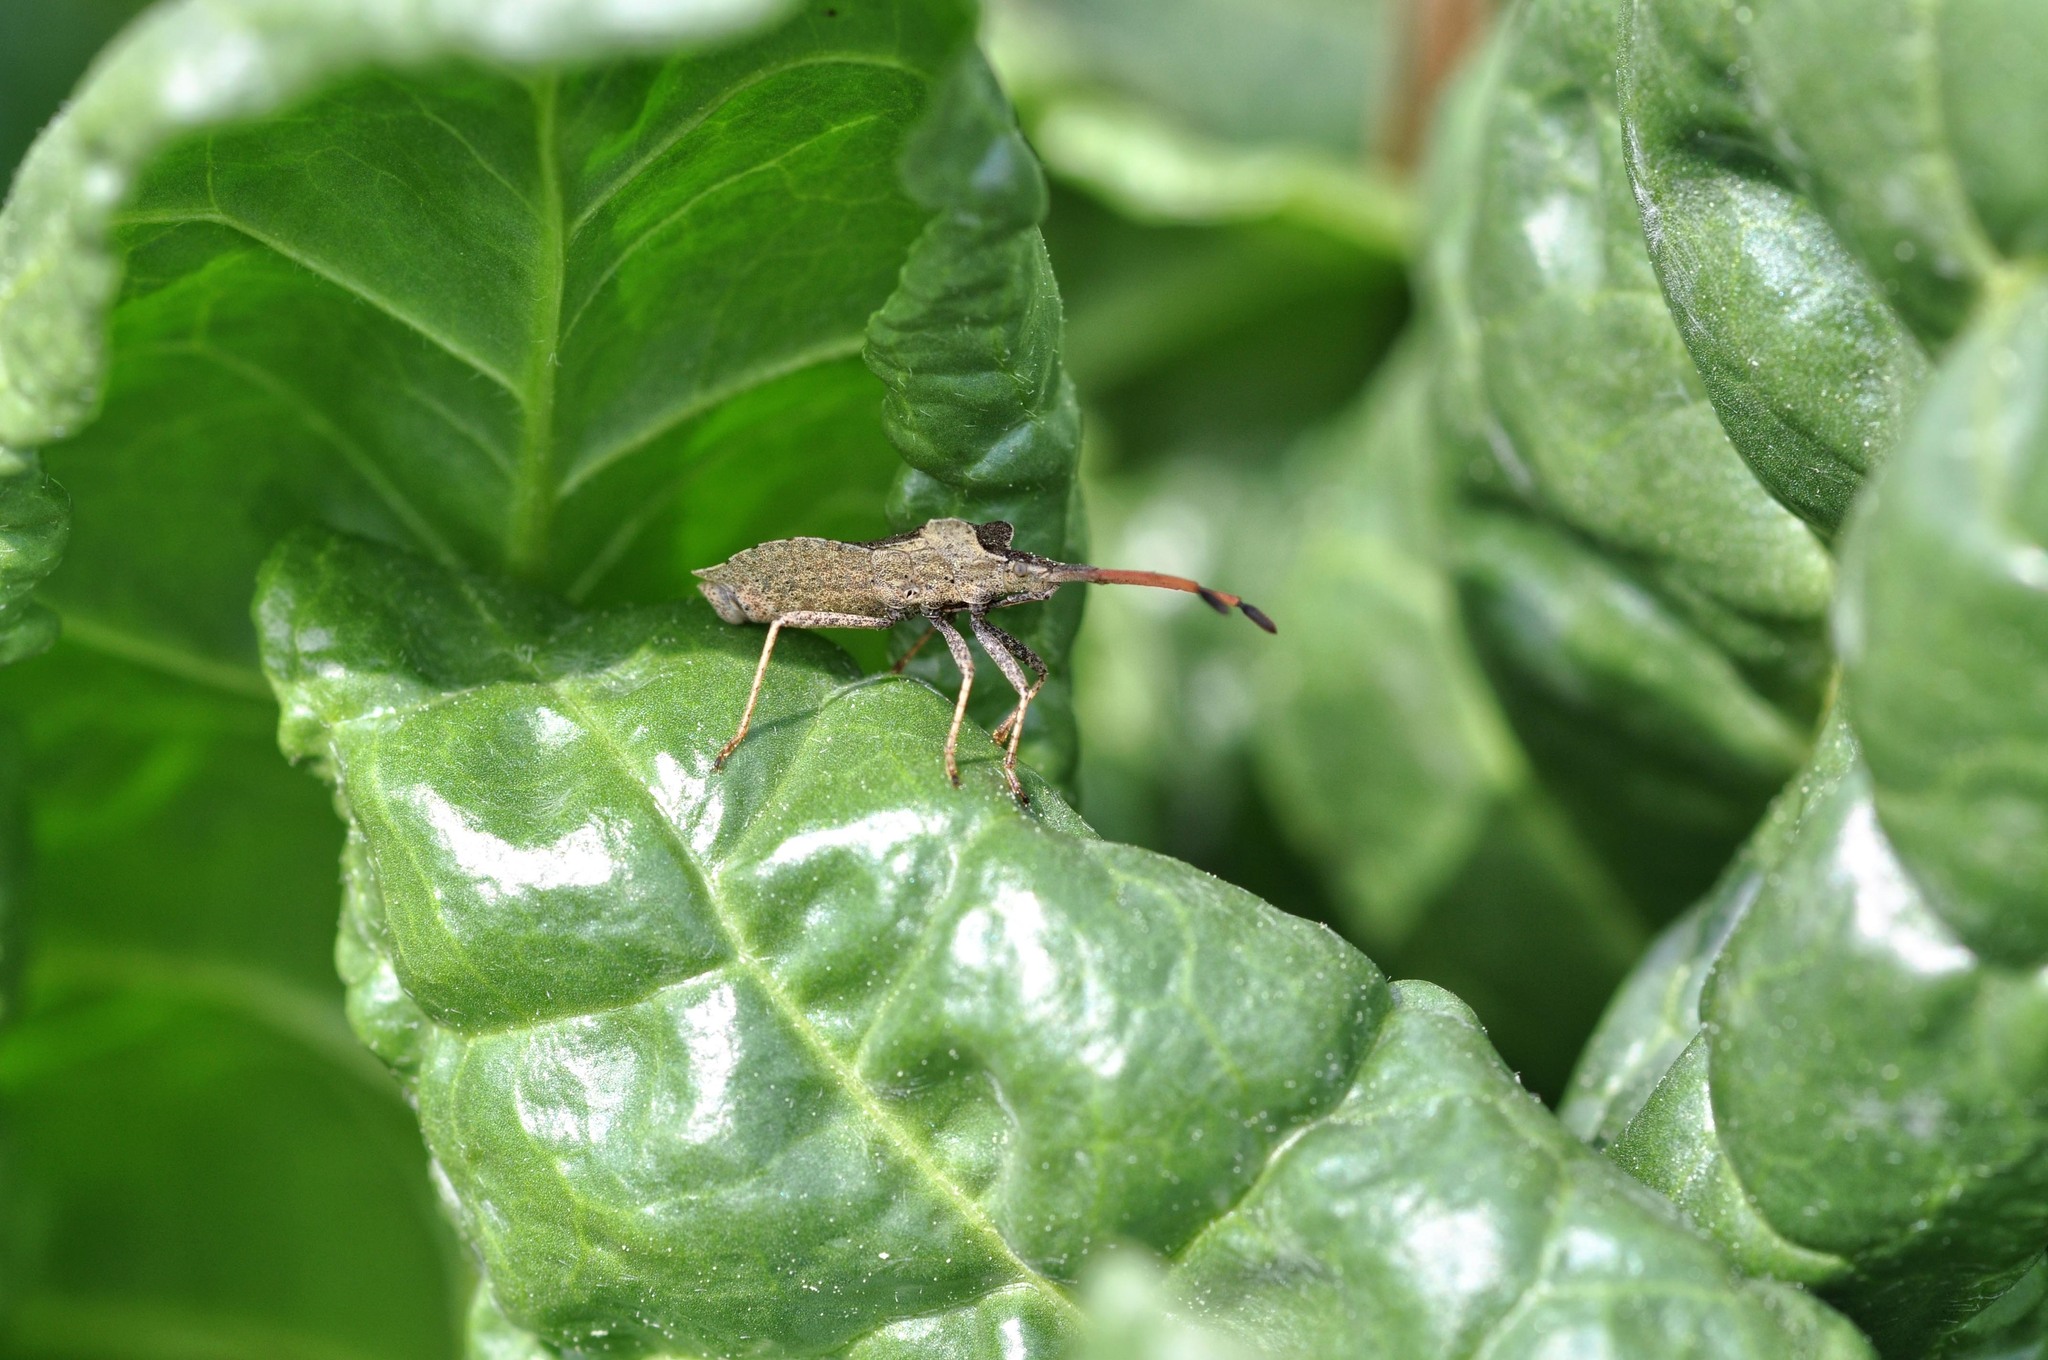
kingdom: Animalia
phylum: Arthropoda
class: Insecta
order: Hemiptera
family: Coreidae
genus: Enoplops
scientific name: Enoplops scapha
